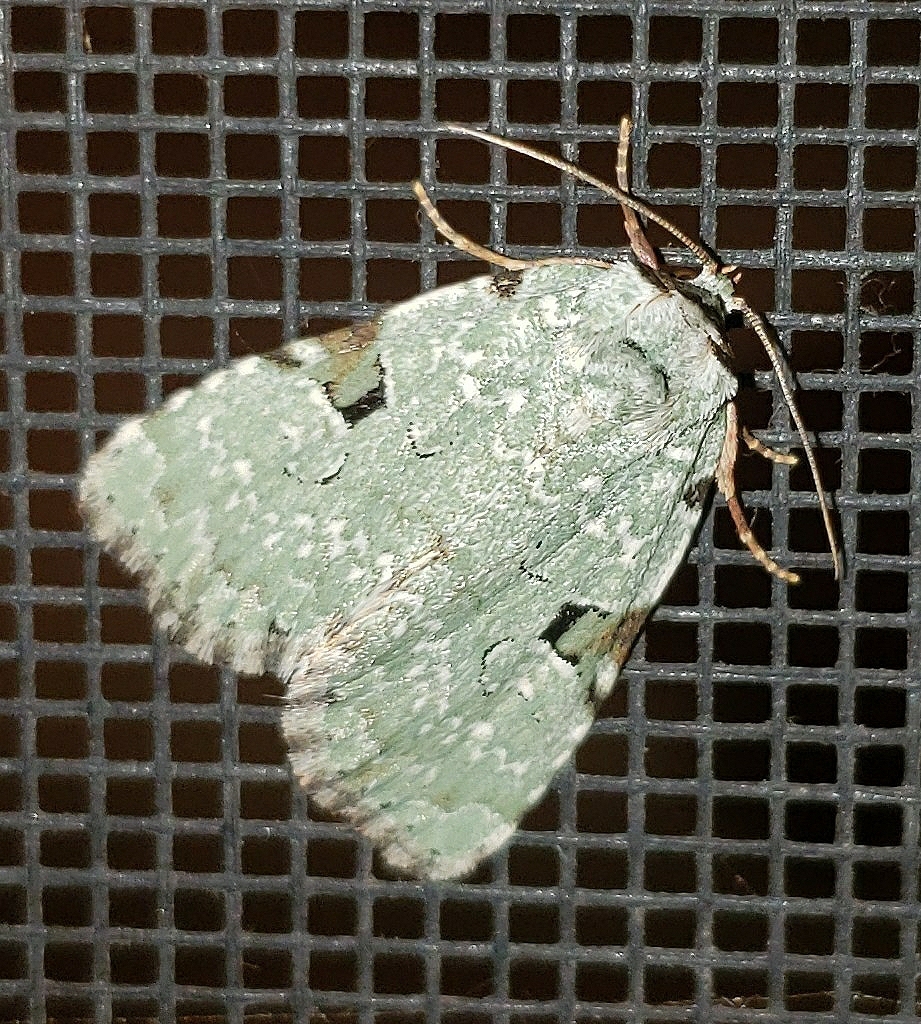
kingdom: Animalia
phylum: Arthropoda
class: Insecta
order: Lepidoptera
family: Noctuidae
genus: Leuconycta
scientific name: Leuconycta diphteroides
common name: Green leuconycta moth
